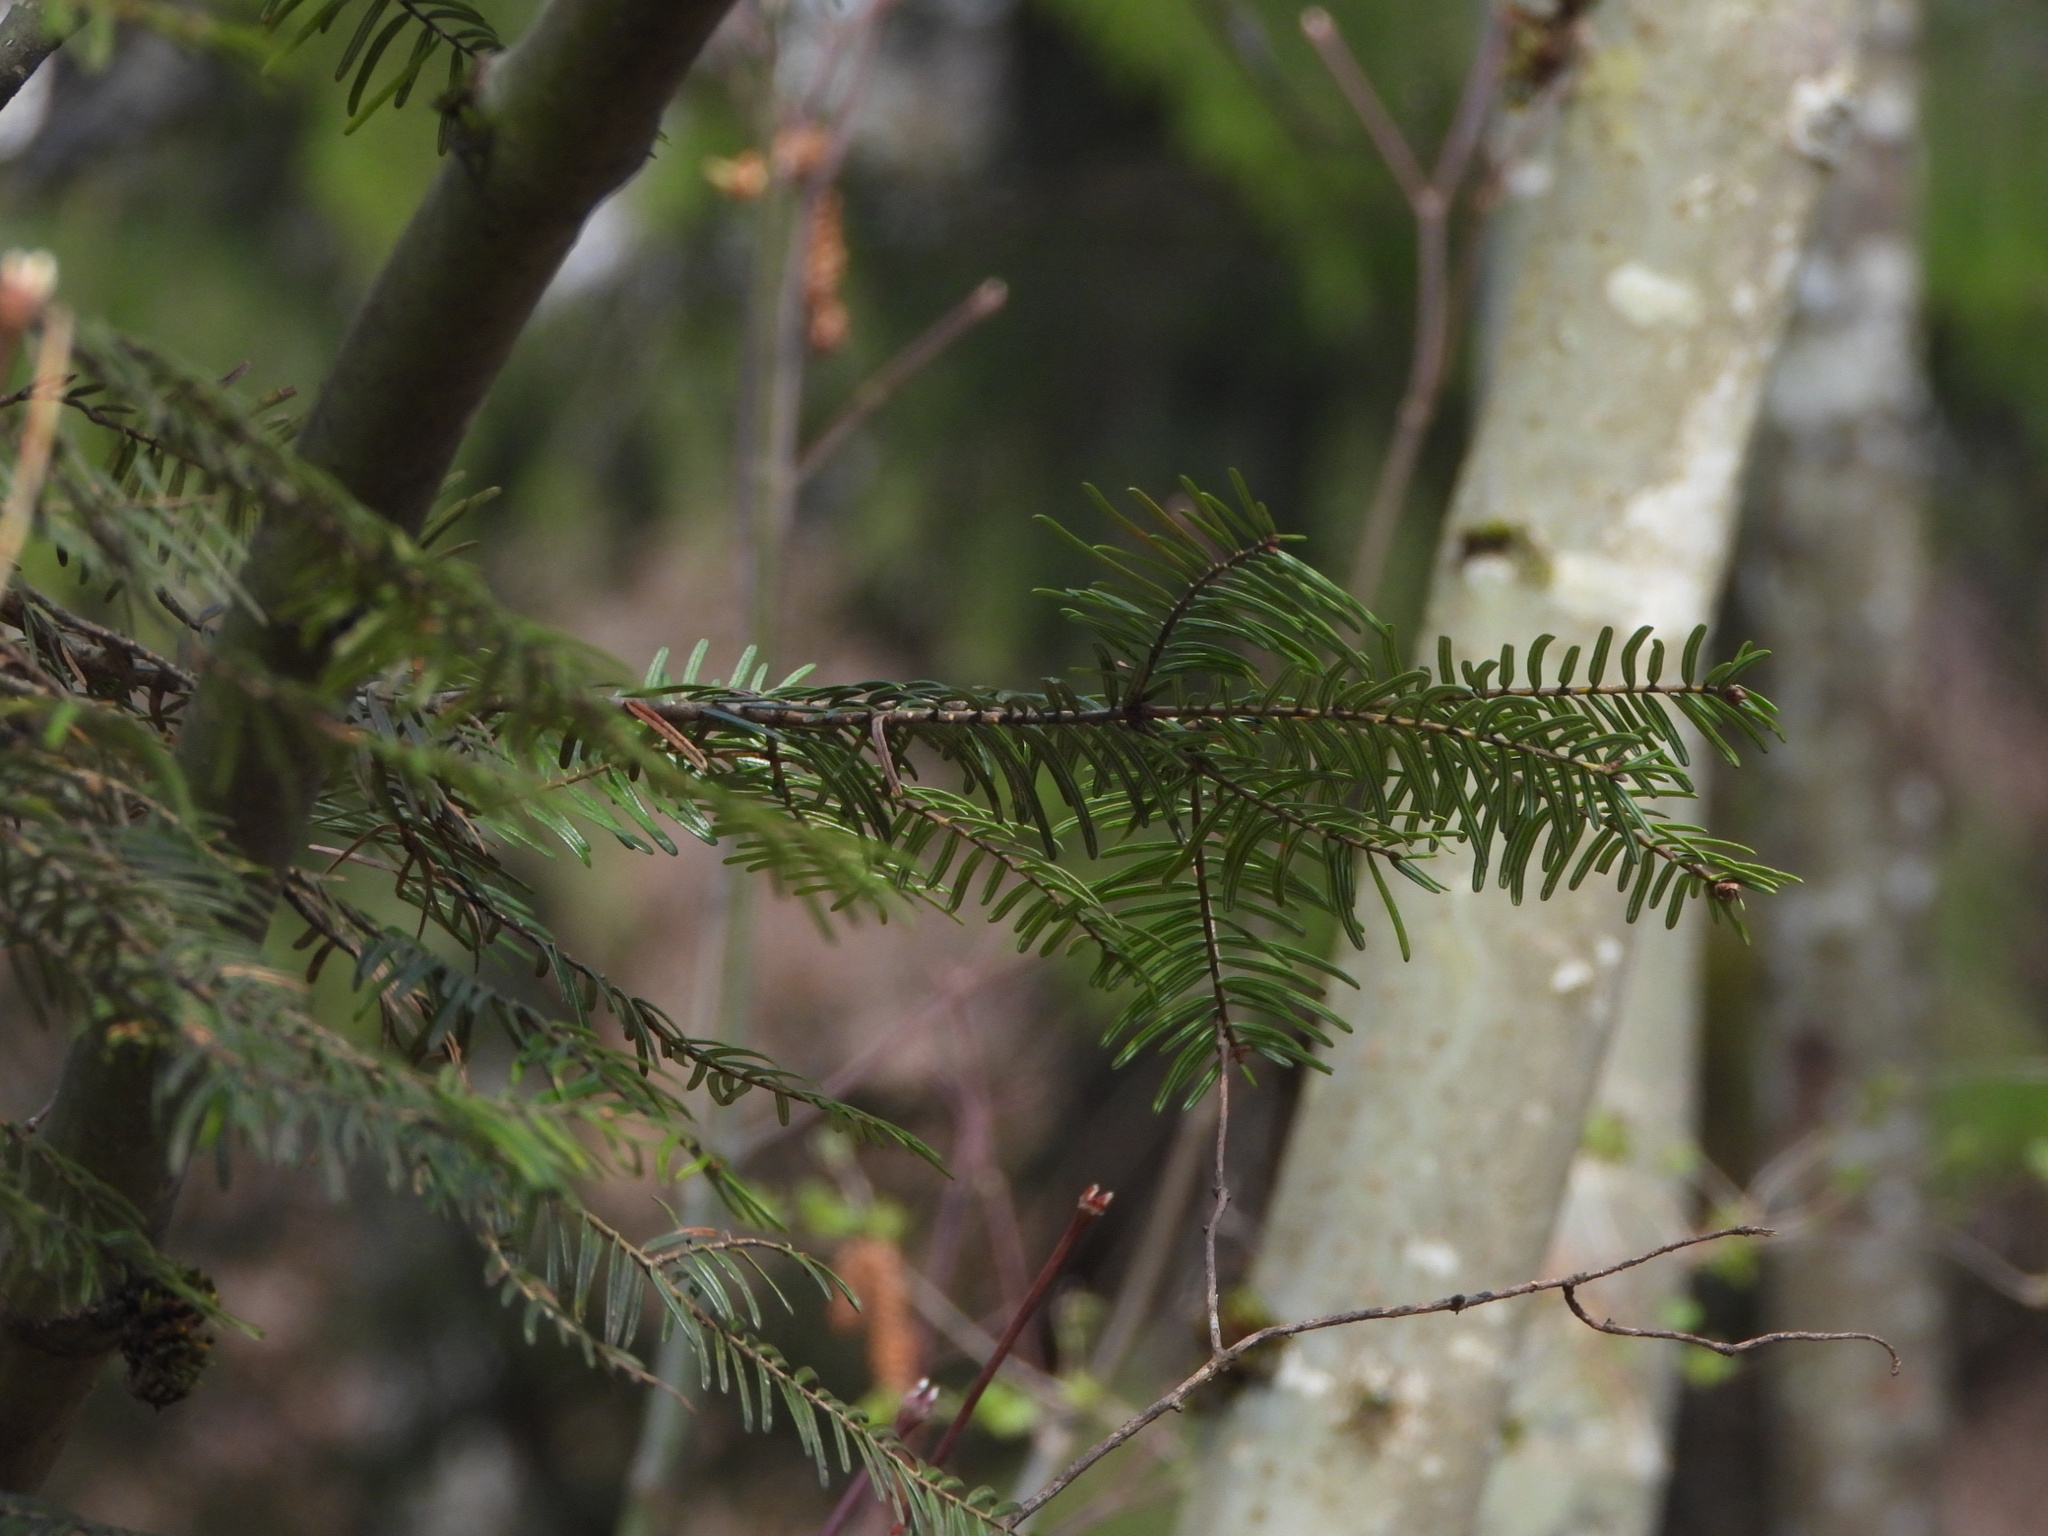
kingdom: Plantae
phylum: Tracheophyta
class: Pinopsida
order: Pinales
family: Pinaceae
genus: Abies
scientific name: Abies grandis
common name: Giant fir
